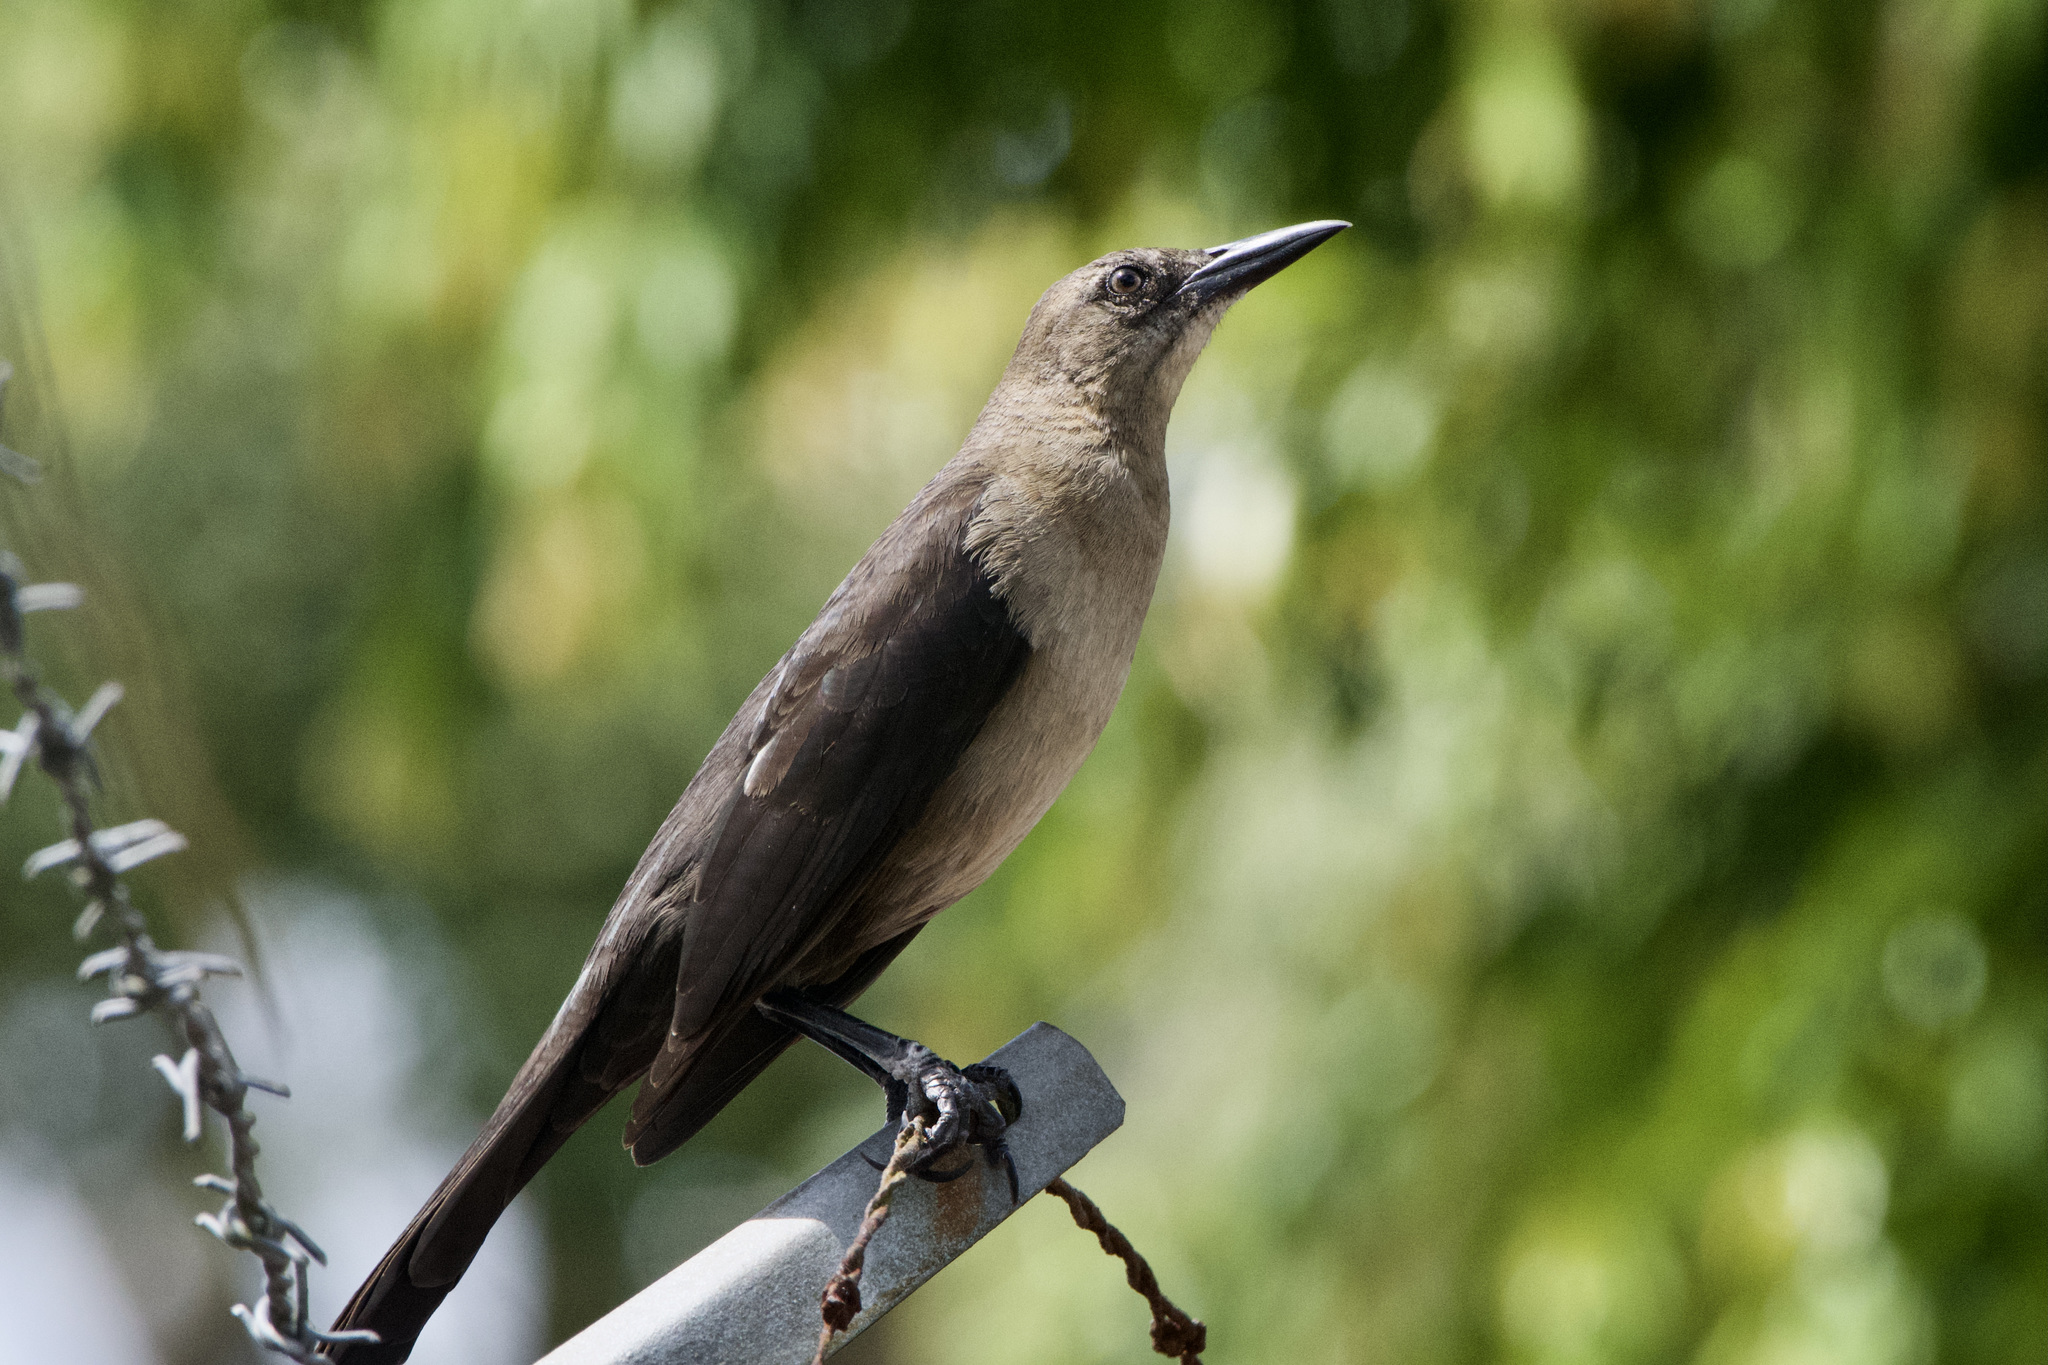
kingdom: Animalia
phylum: Chordata
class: Aves
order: Passeriformes
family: Icteridae
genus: Quiscalus
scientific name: Quiscalus mexicanus
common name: Great-tailed grackle
